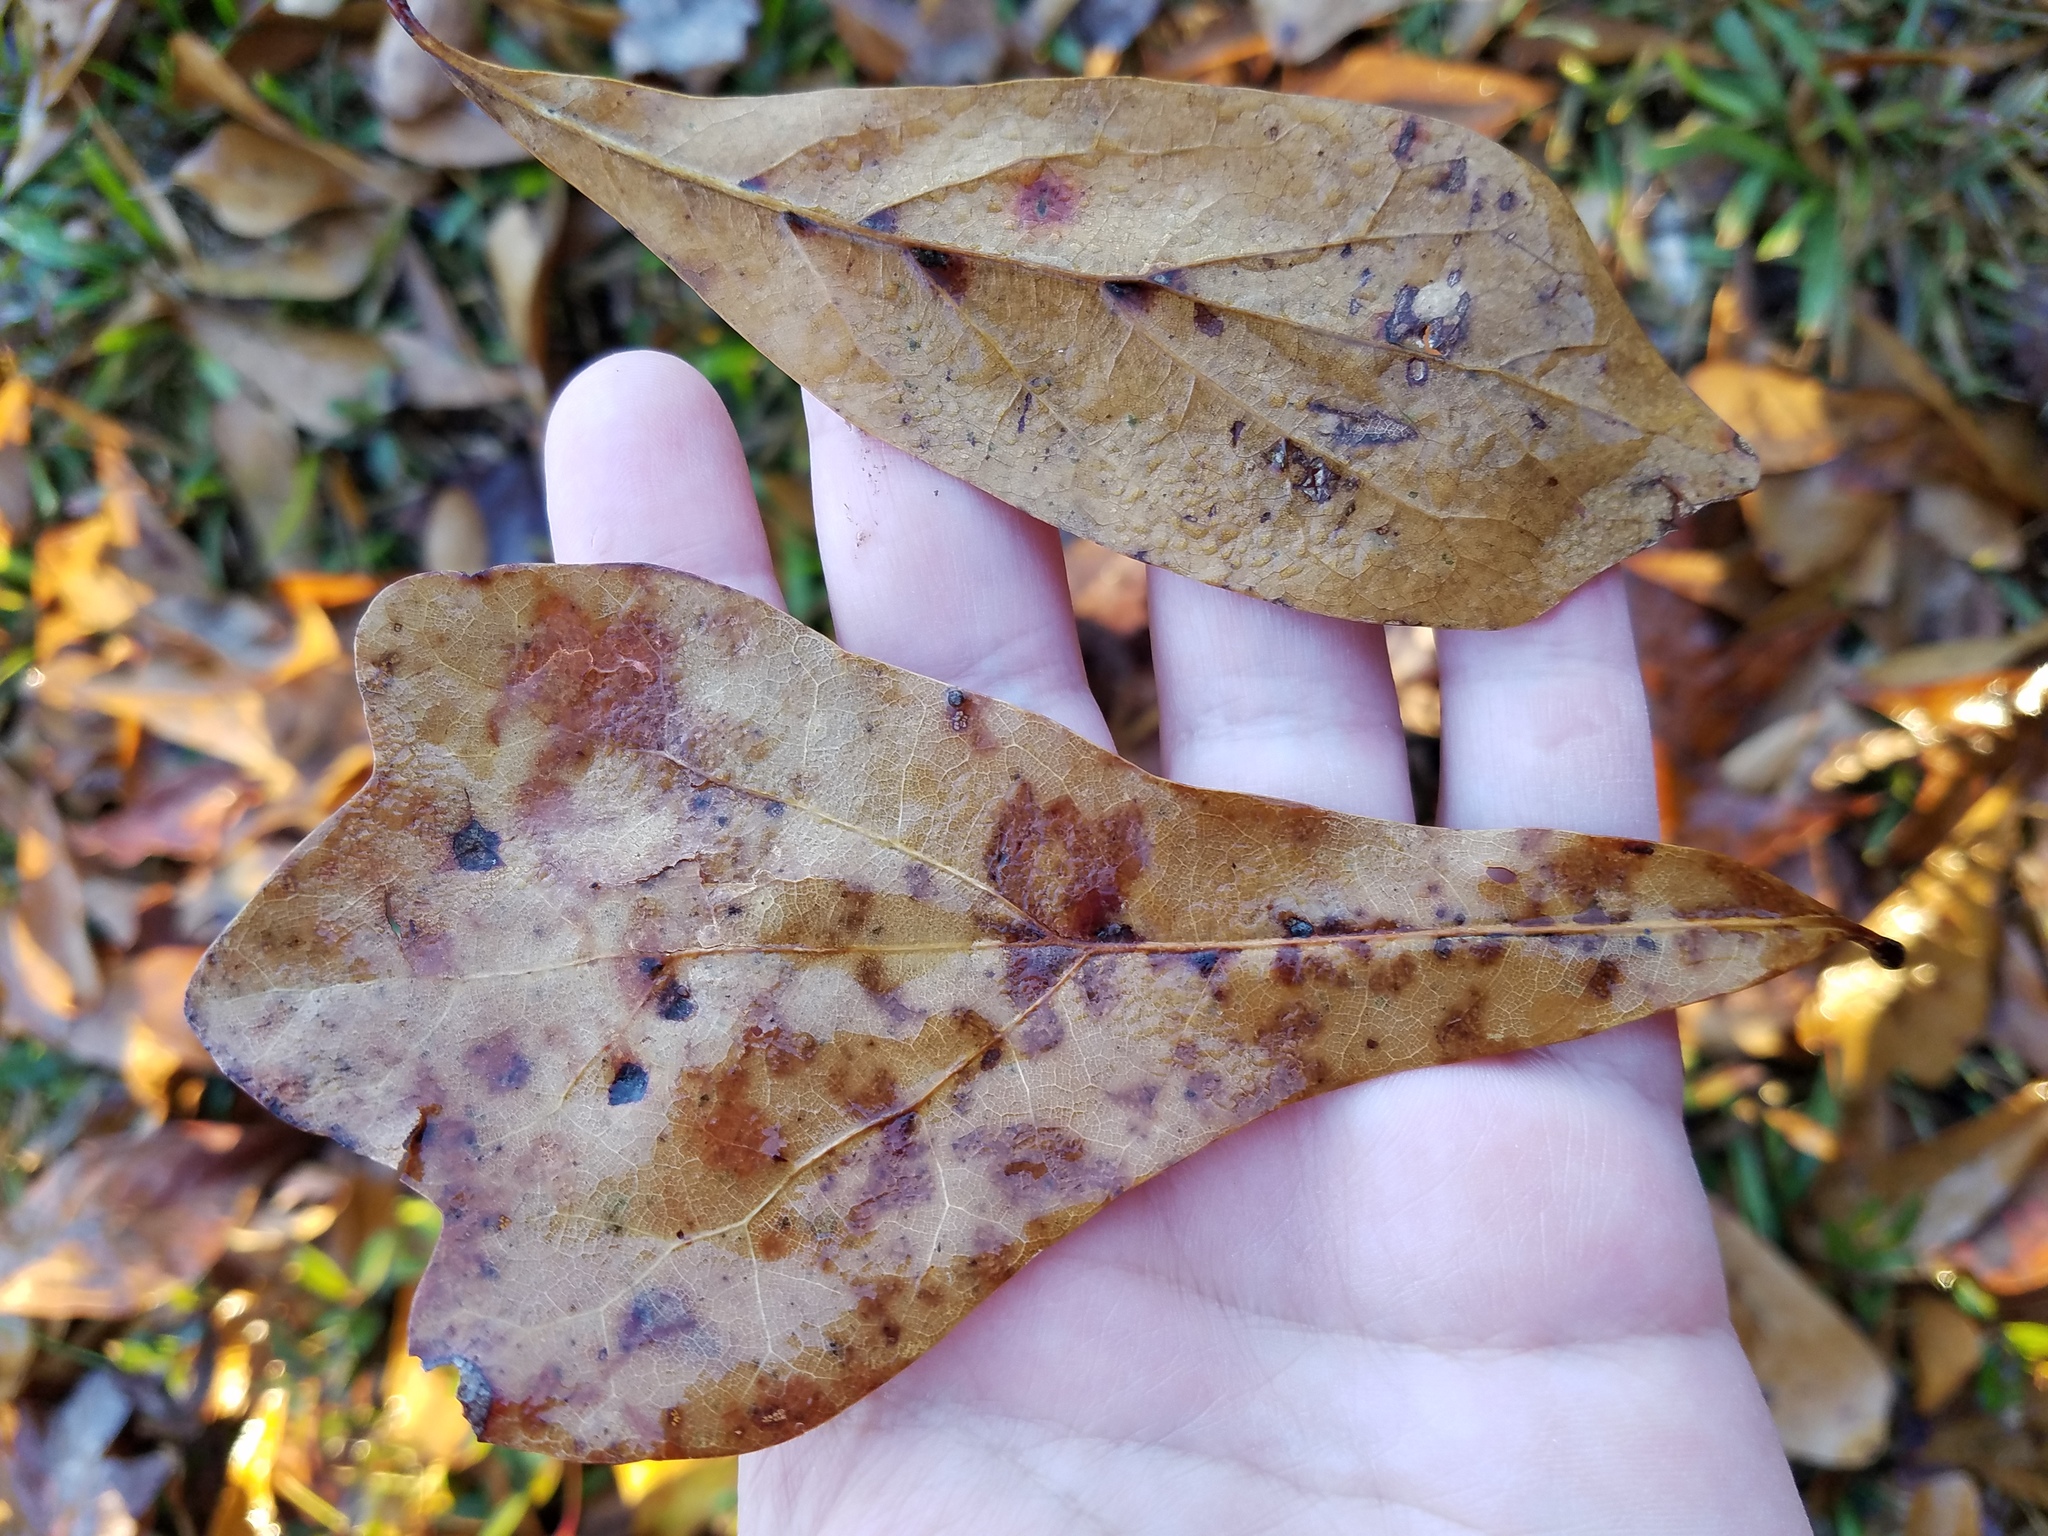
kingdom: Plantae
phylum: Tracheophyta
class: Magnoliopsida
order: Fagales
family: Fagaceae
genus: Quercus
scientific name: Quercus nigra
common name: Water oak
